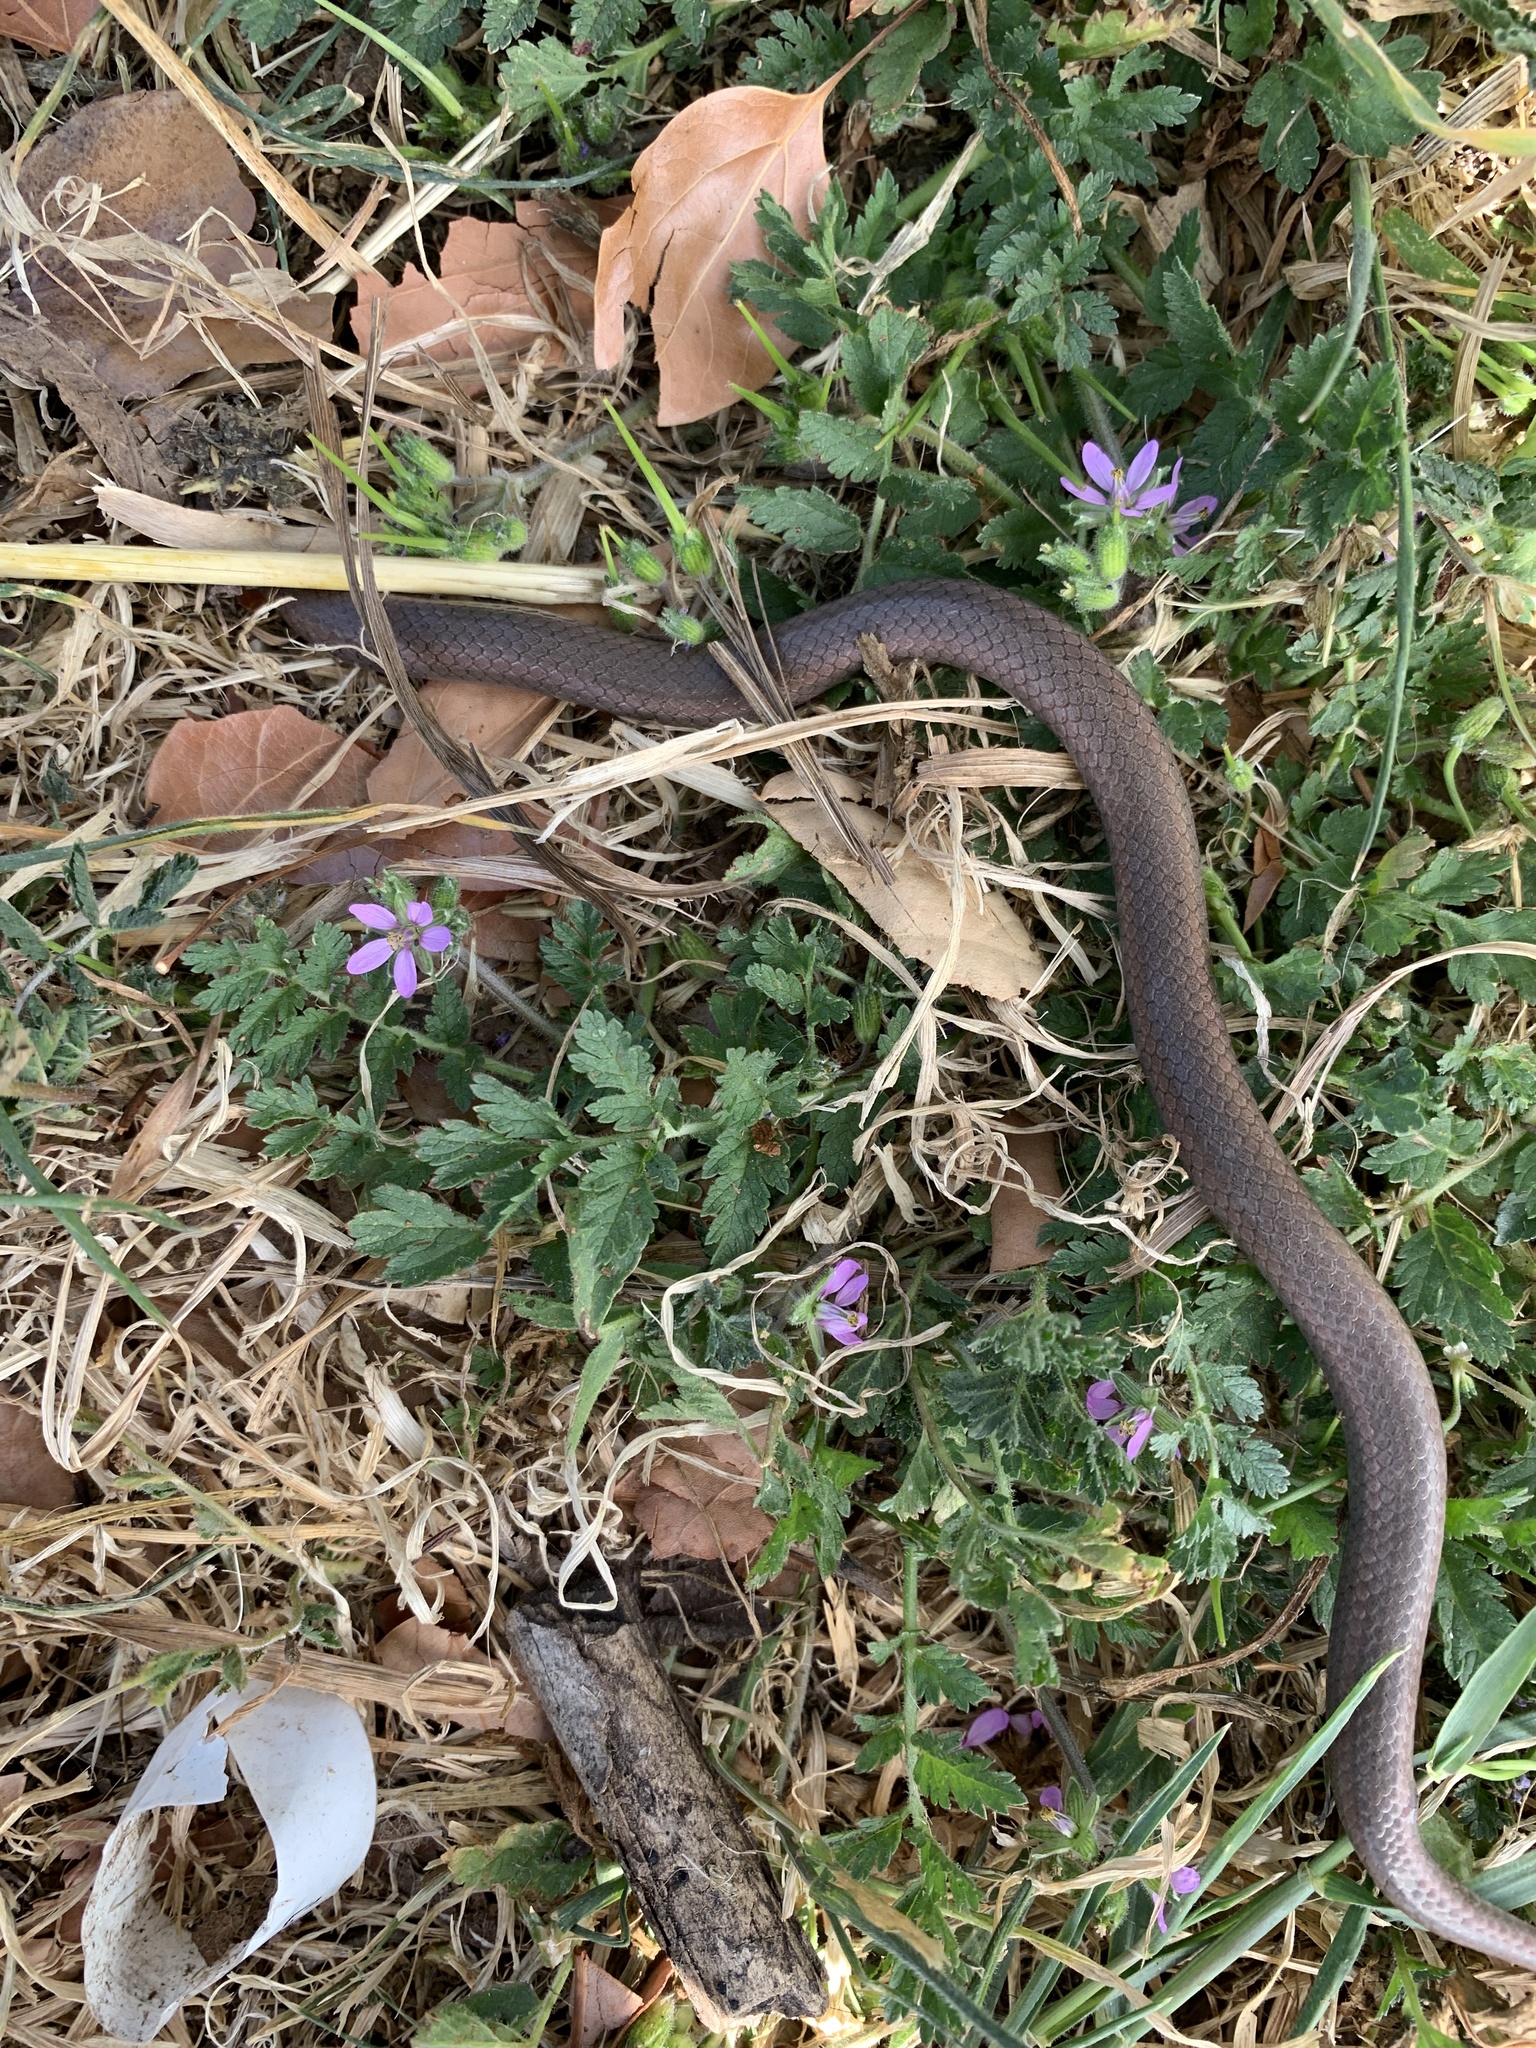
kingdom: Animalia
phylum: Chordata
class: Squamata
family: Colubridae
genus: Contia
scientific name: Contia tenuis
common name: Sharptail snake
